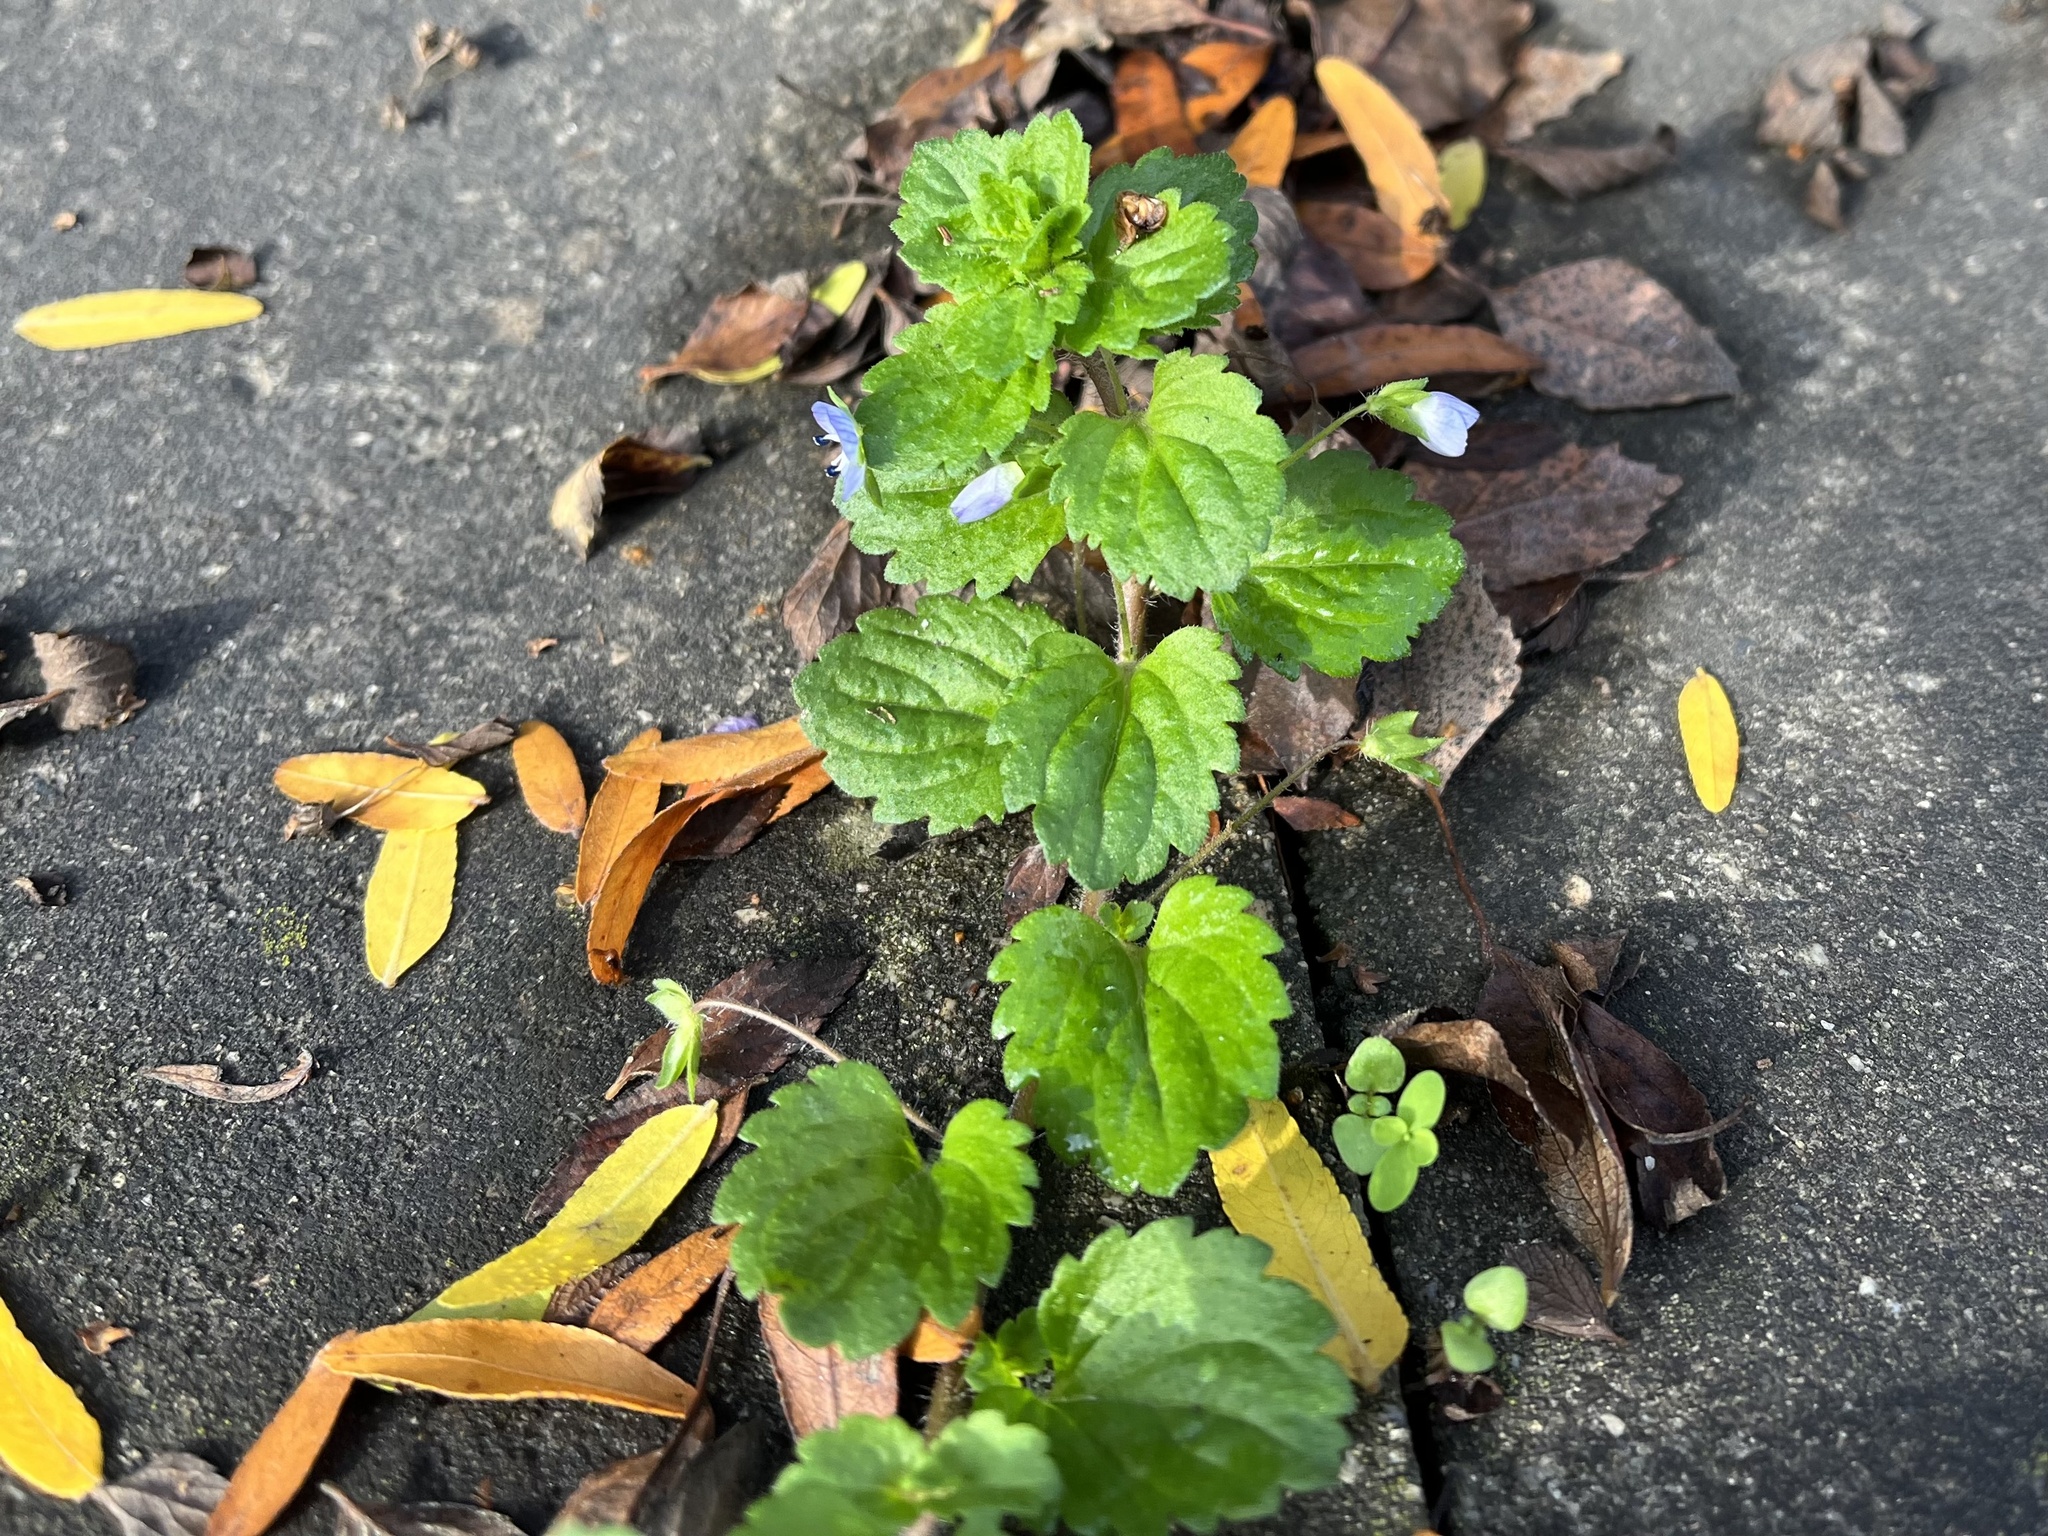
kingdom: Plantae
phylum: Tracheophyta
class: Magnoliopsida
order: Lamiales
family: Plantaginaceae
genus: Veronica
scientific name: Veronica persica
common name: Common field-speedwell
